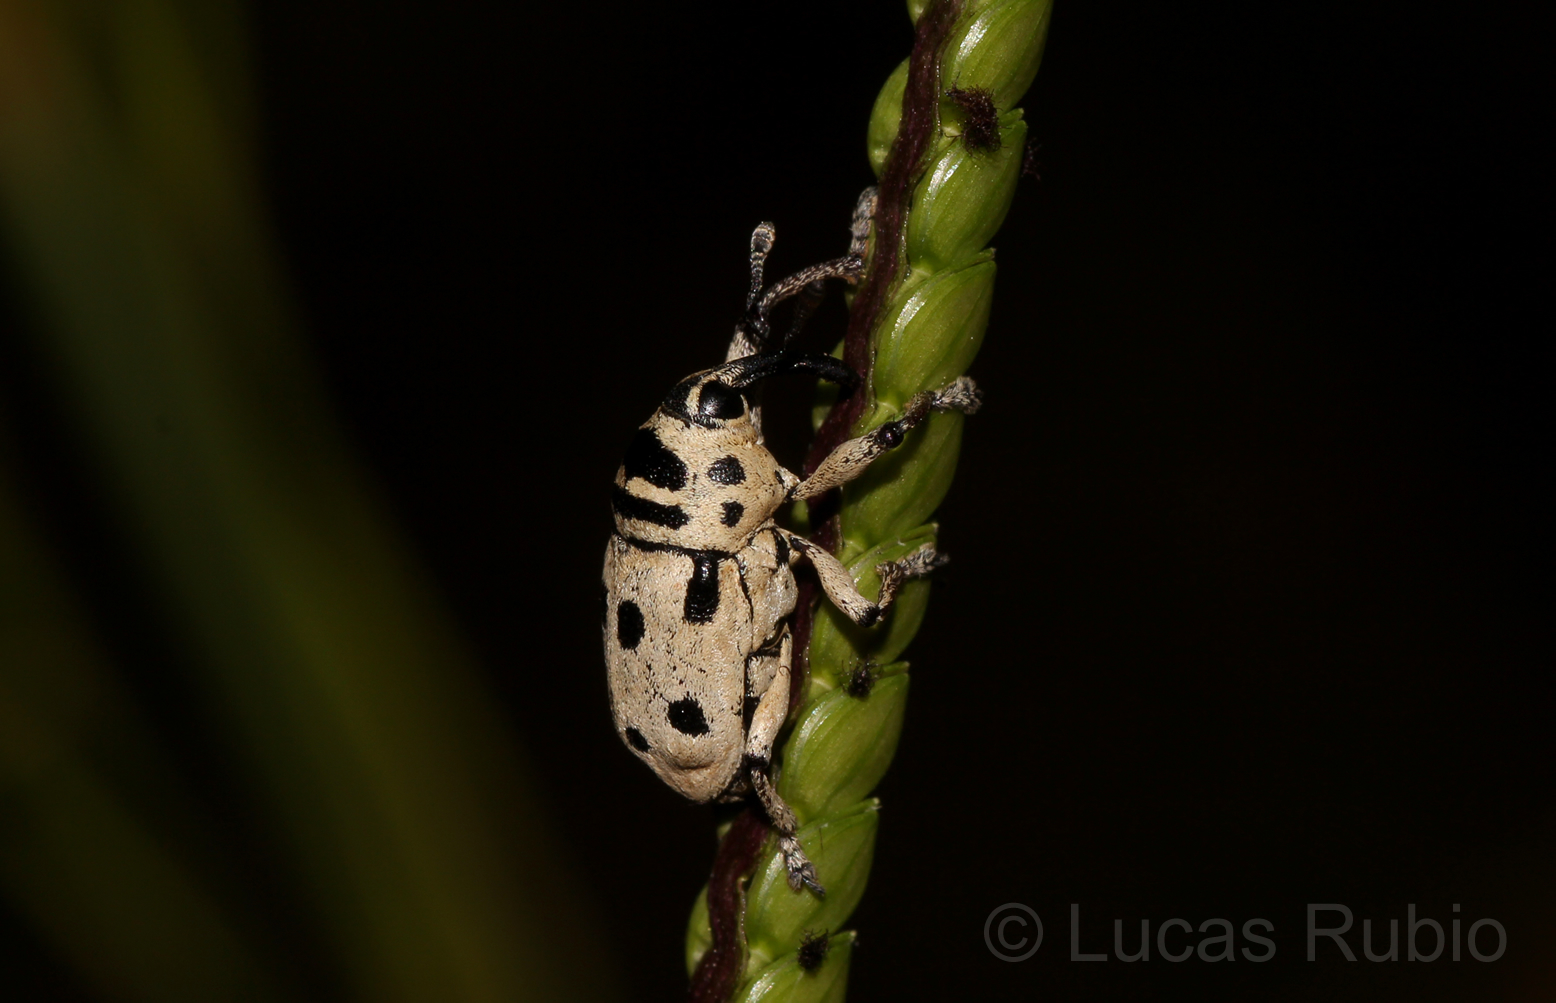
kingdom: Animalia
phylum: Arthropoda
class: Insecta
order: Coleoptera
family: Curculionidae
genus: Cholus
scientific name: Cholus boisduvali
